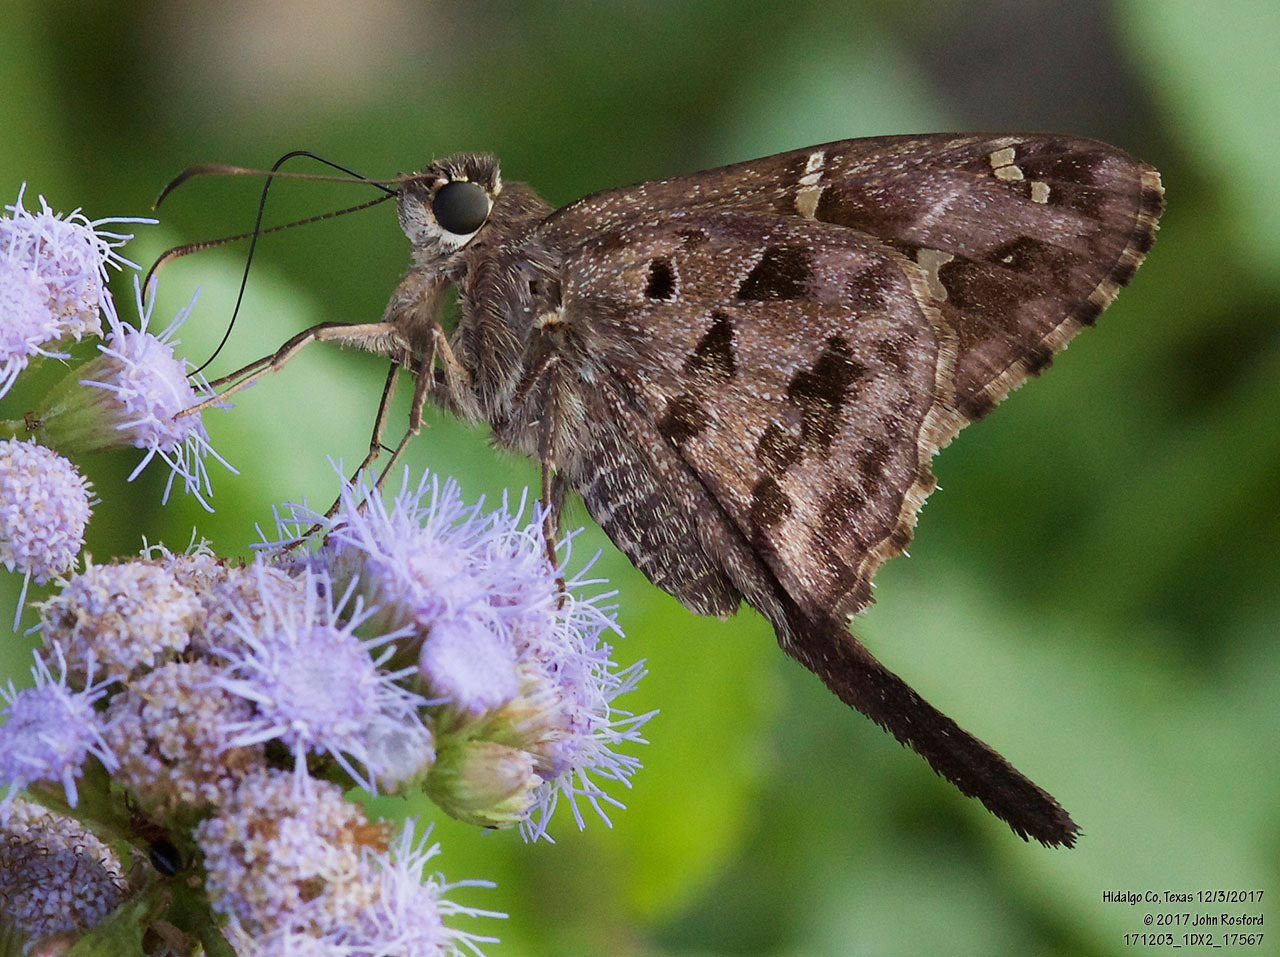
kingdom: Animalia
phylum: Arthropoda
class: Insecta
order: Lepidoptera
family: Hesperiidae
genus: Thorybes
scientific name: Thorybes
